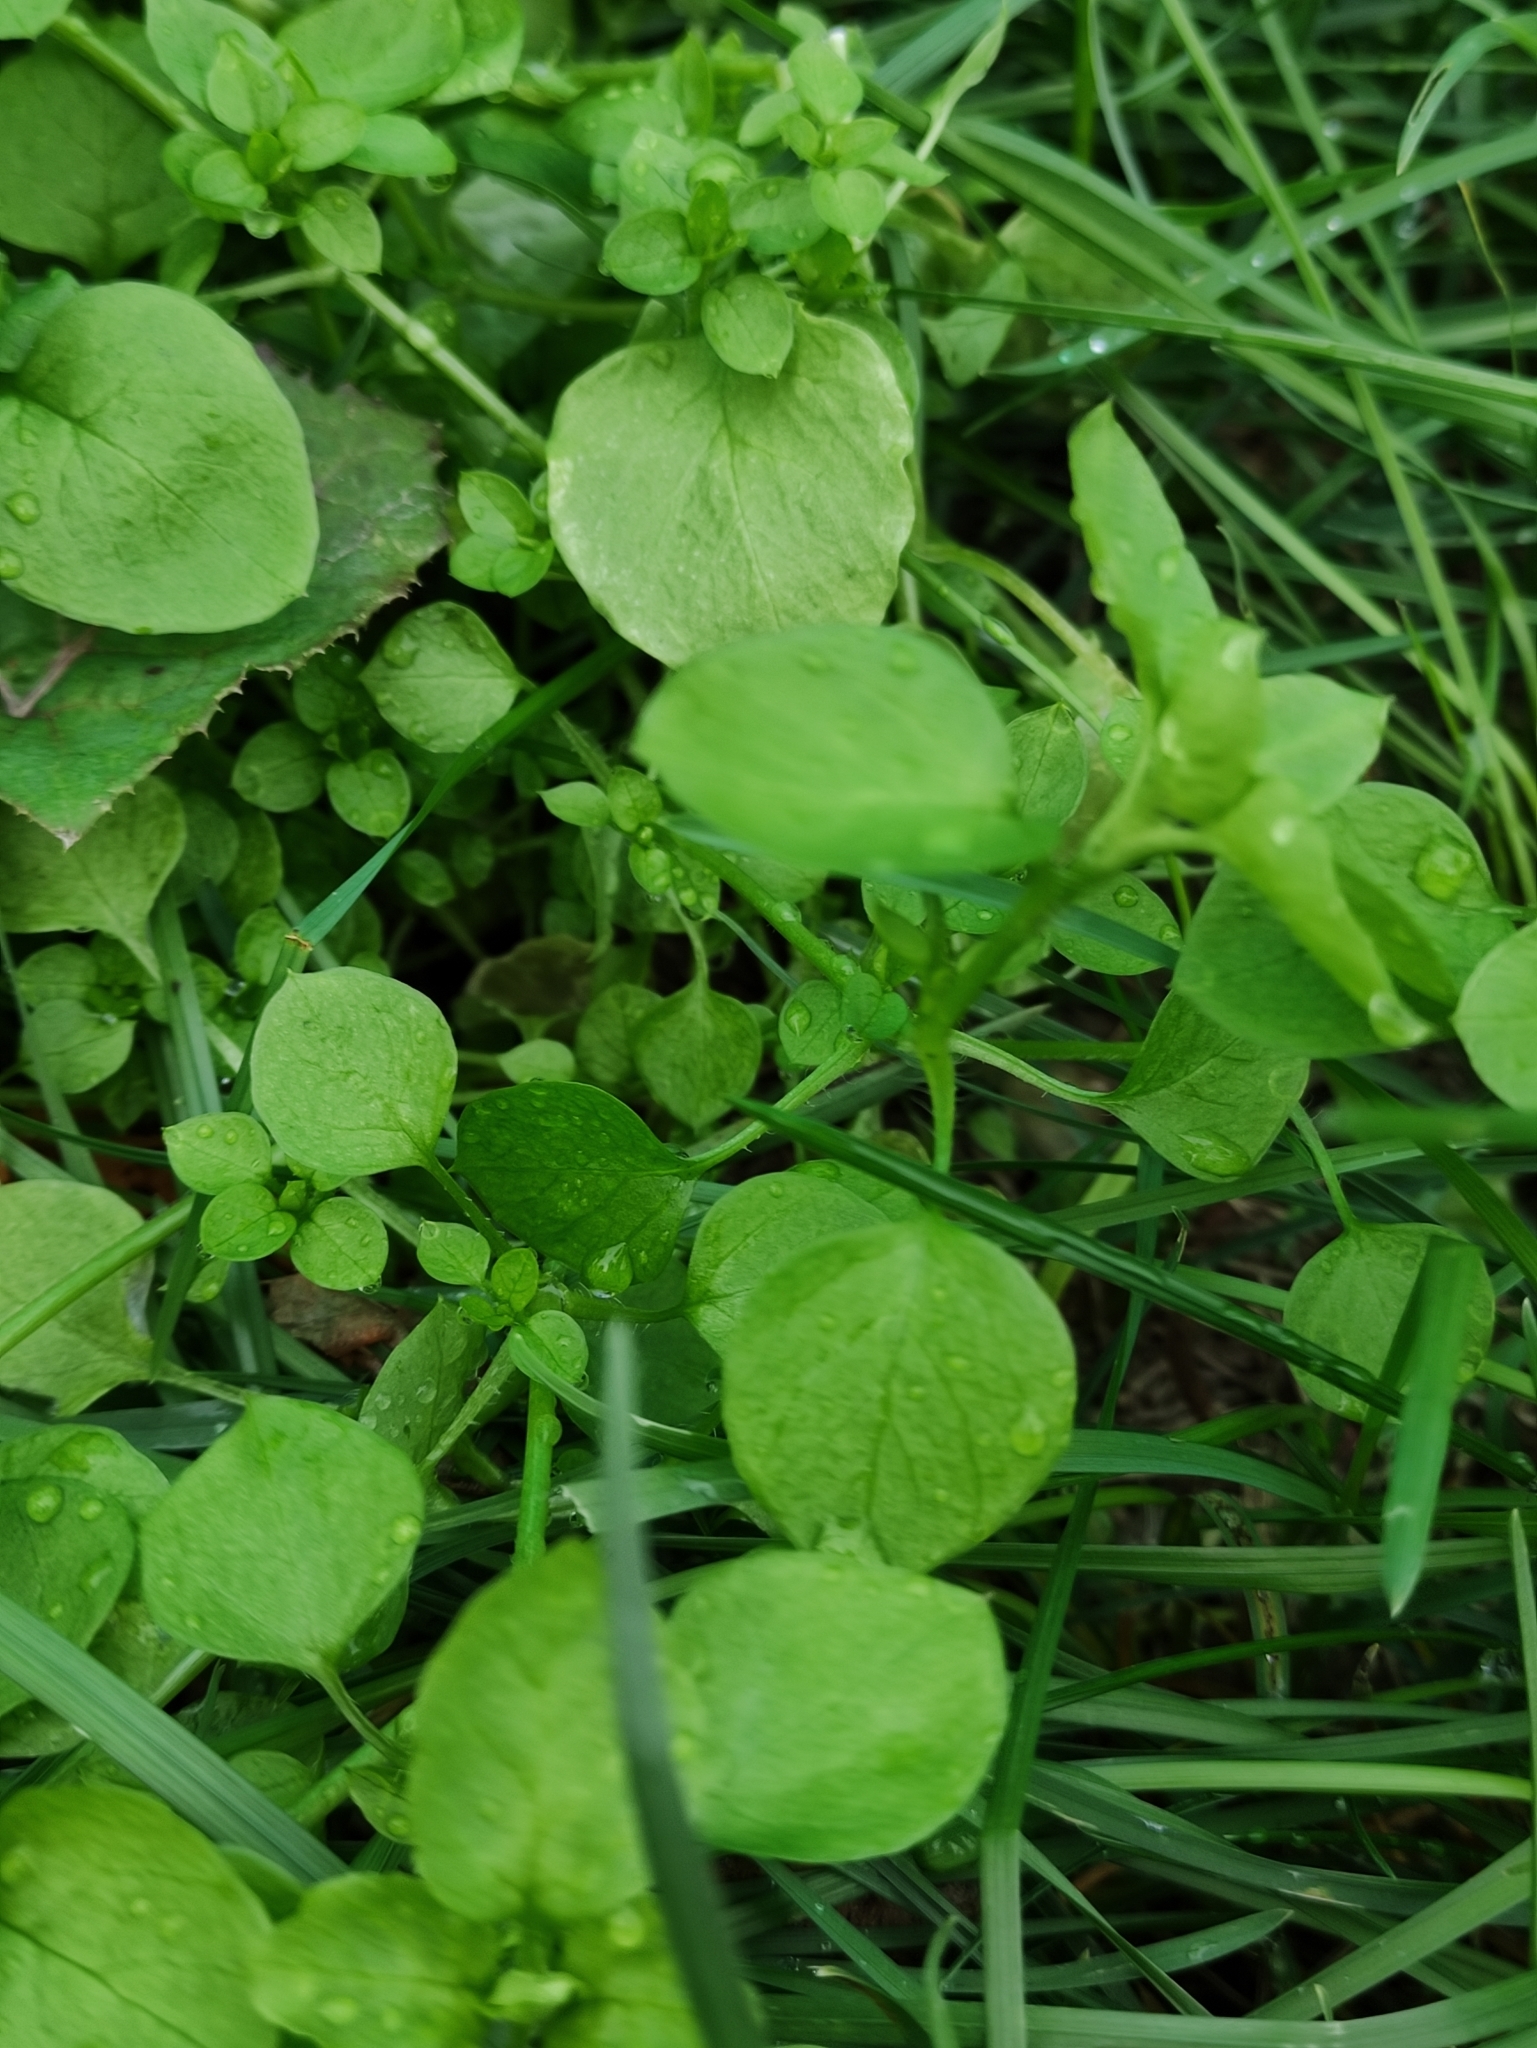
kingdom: Plantae
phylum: Tracheophyta
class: Magnoliopsida
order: Caryophyllales
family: Caryophyllaceae
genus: Stellaria
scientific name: Stellaria media
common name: Common chickweed
